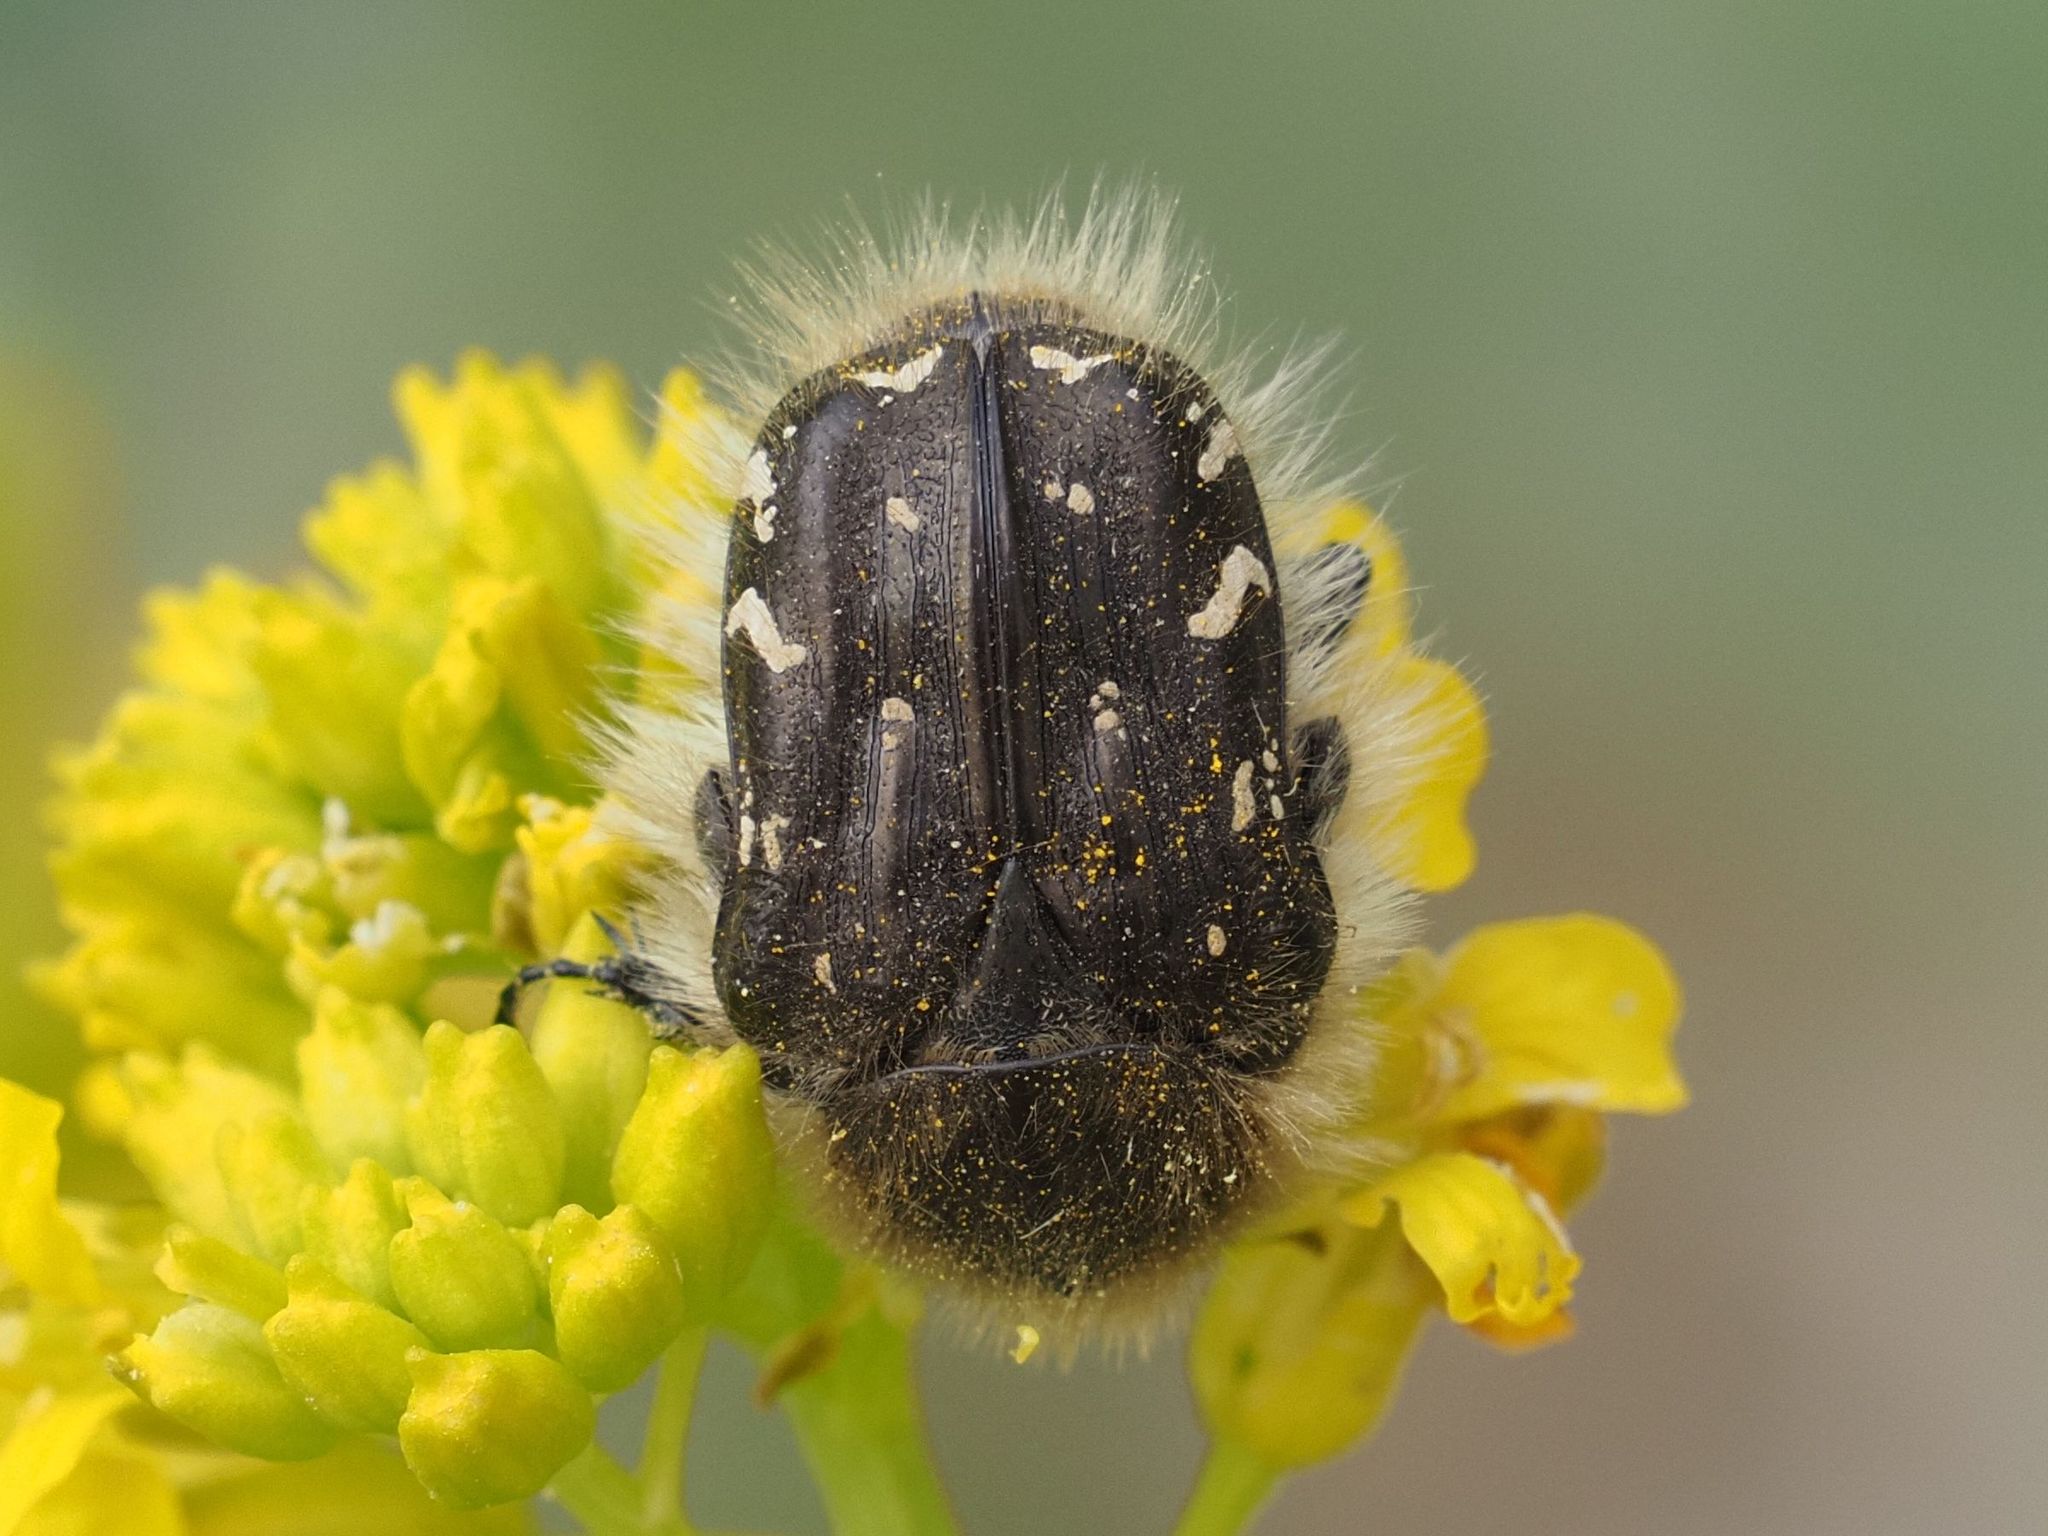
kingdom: Animalia
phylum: Arthropoda
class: Insecta
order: Coleoptera
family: Scarabaeidae
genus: Tropinota
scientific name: Tropinota hirta
